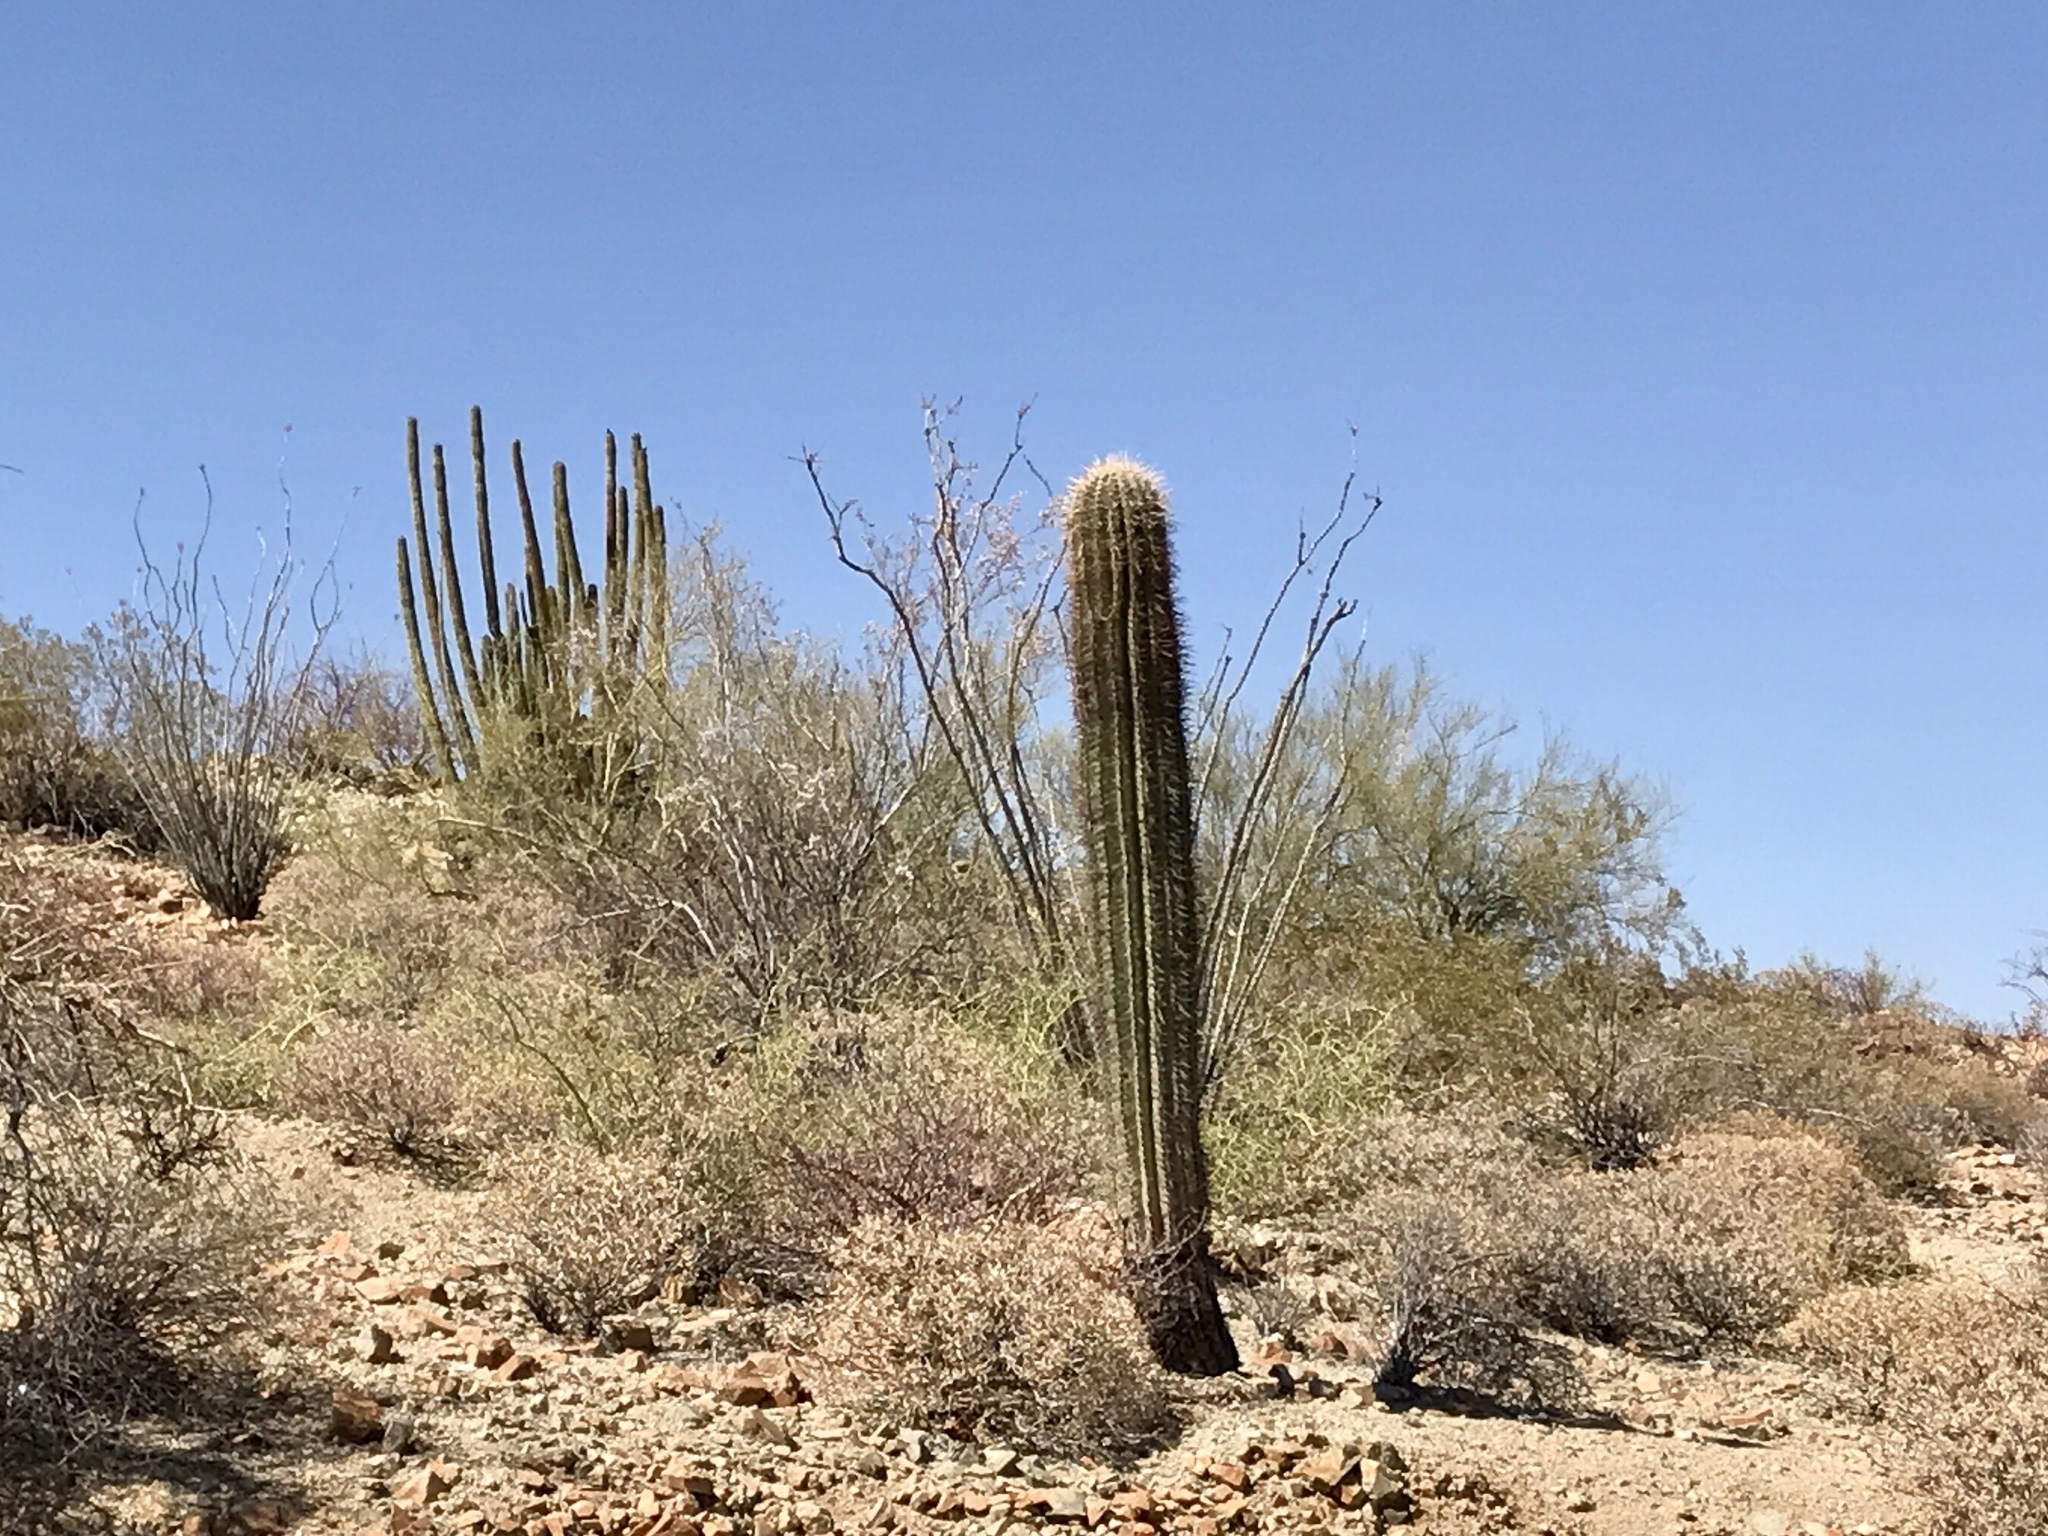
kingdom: Plantae
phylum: Tracheophyta
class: Magnoliopsida
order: Caryophyllales
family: Cactaceae
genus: Carnegiea
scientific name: Carnegiea gigantea
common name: Saguaro
